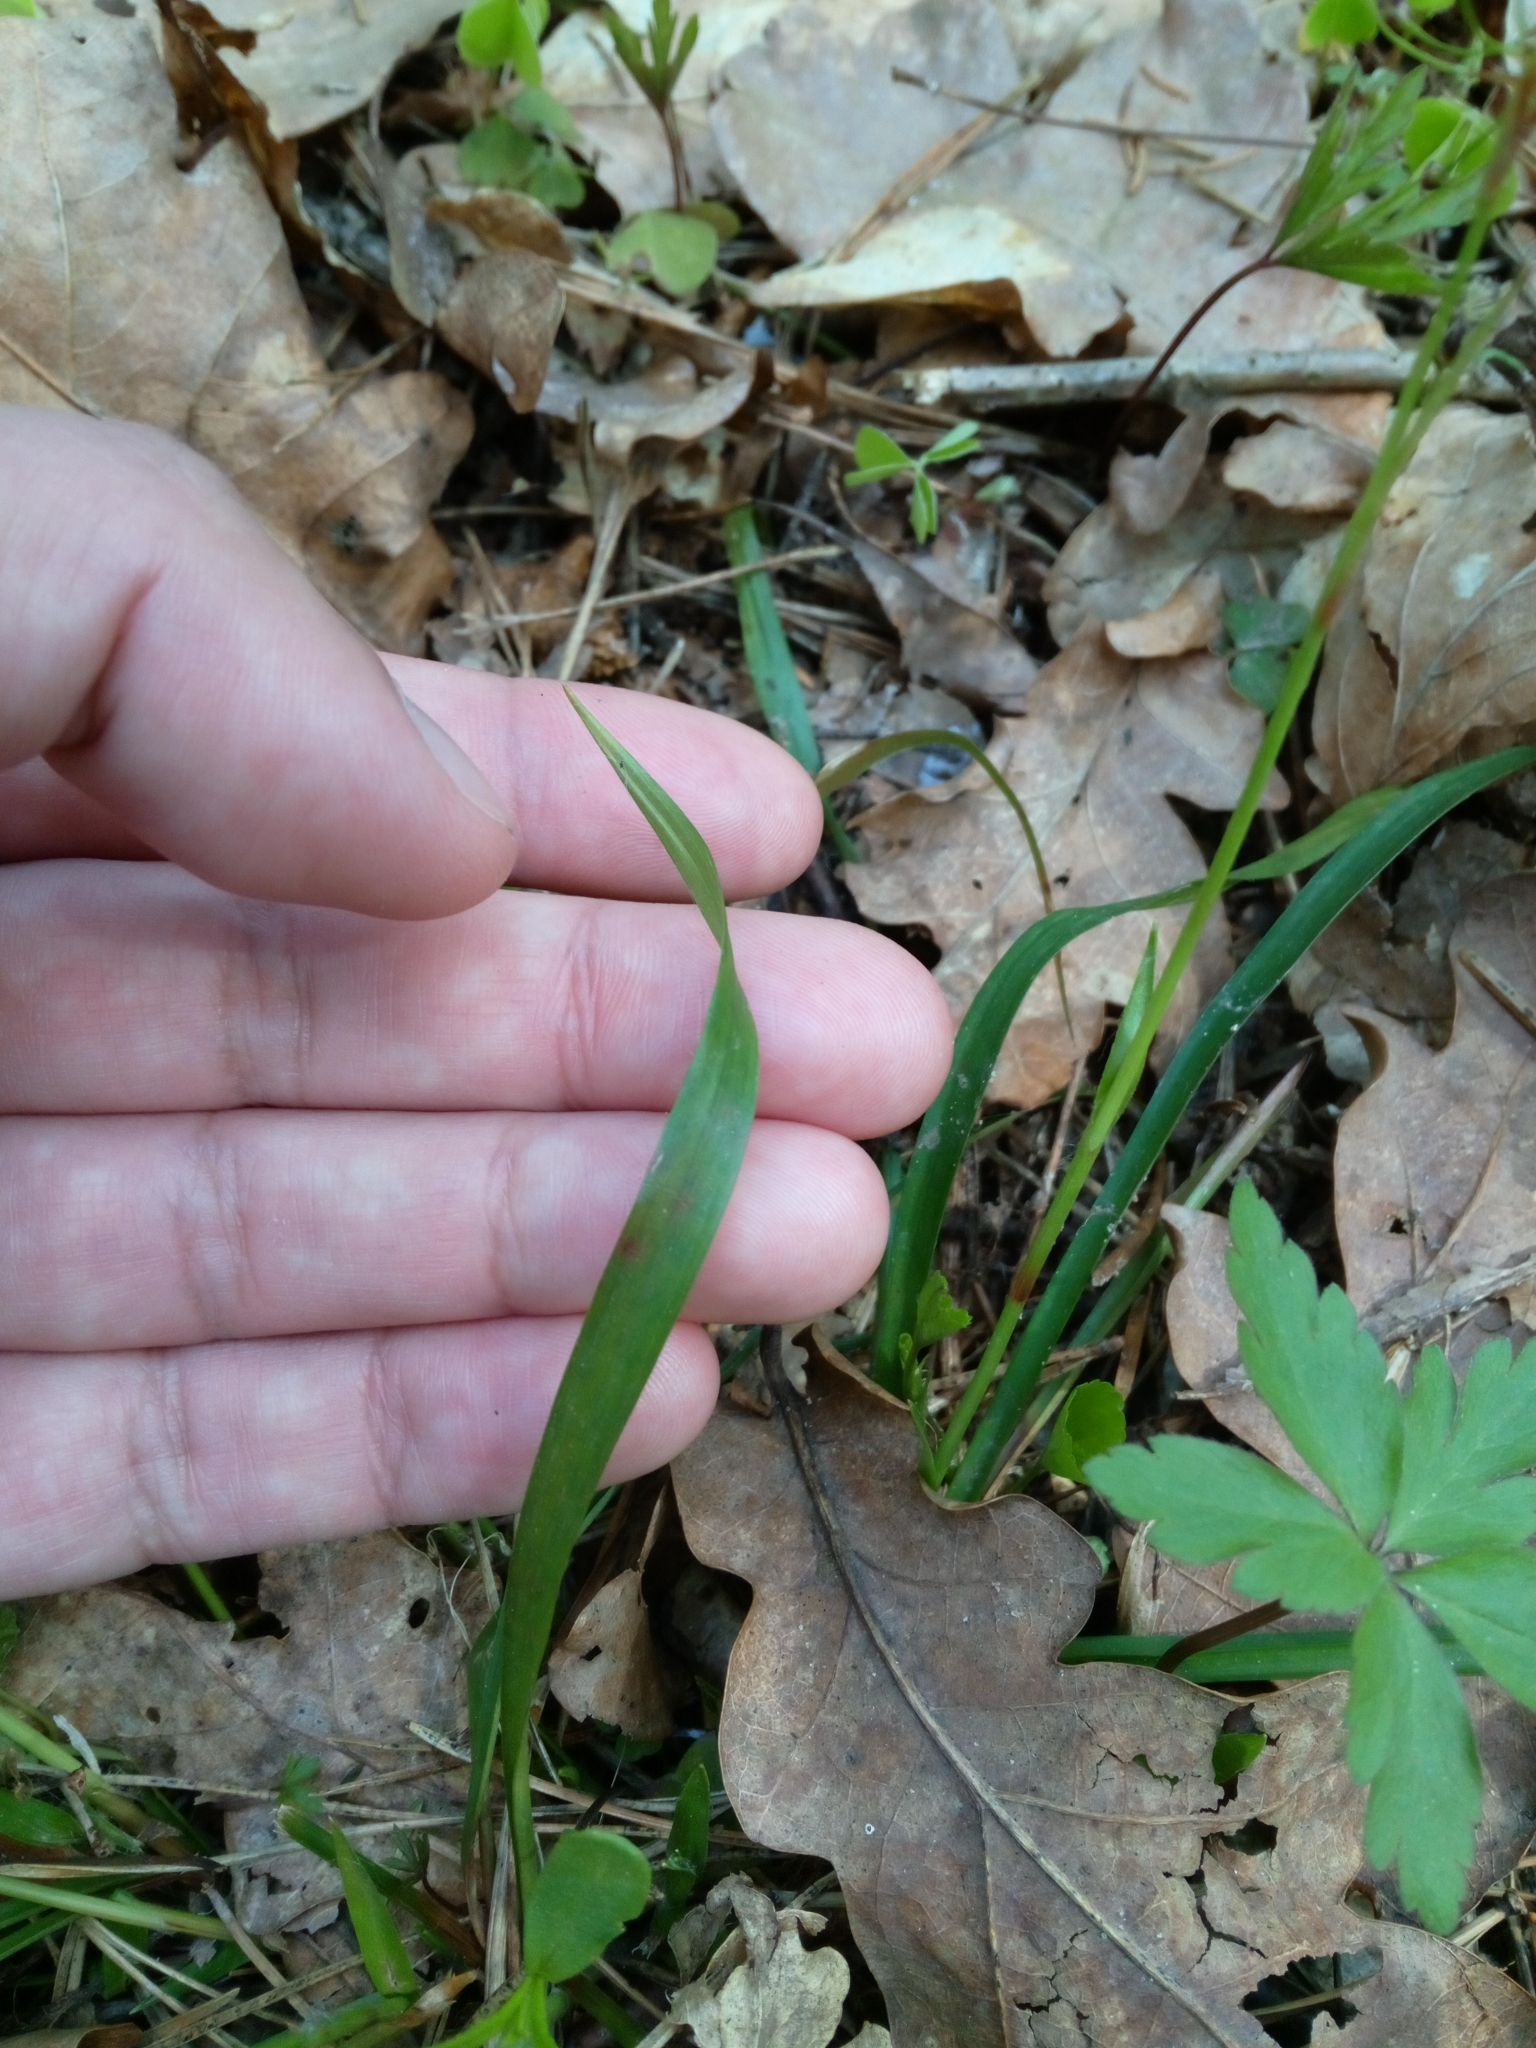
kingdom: Plantae
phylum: Tracheophyta
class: Liliopsida
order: Poales
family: Juncaceae
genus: Luzula
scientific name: Luzula pilosa
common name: Hairy wood-rush
